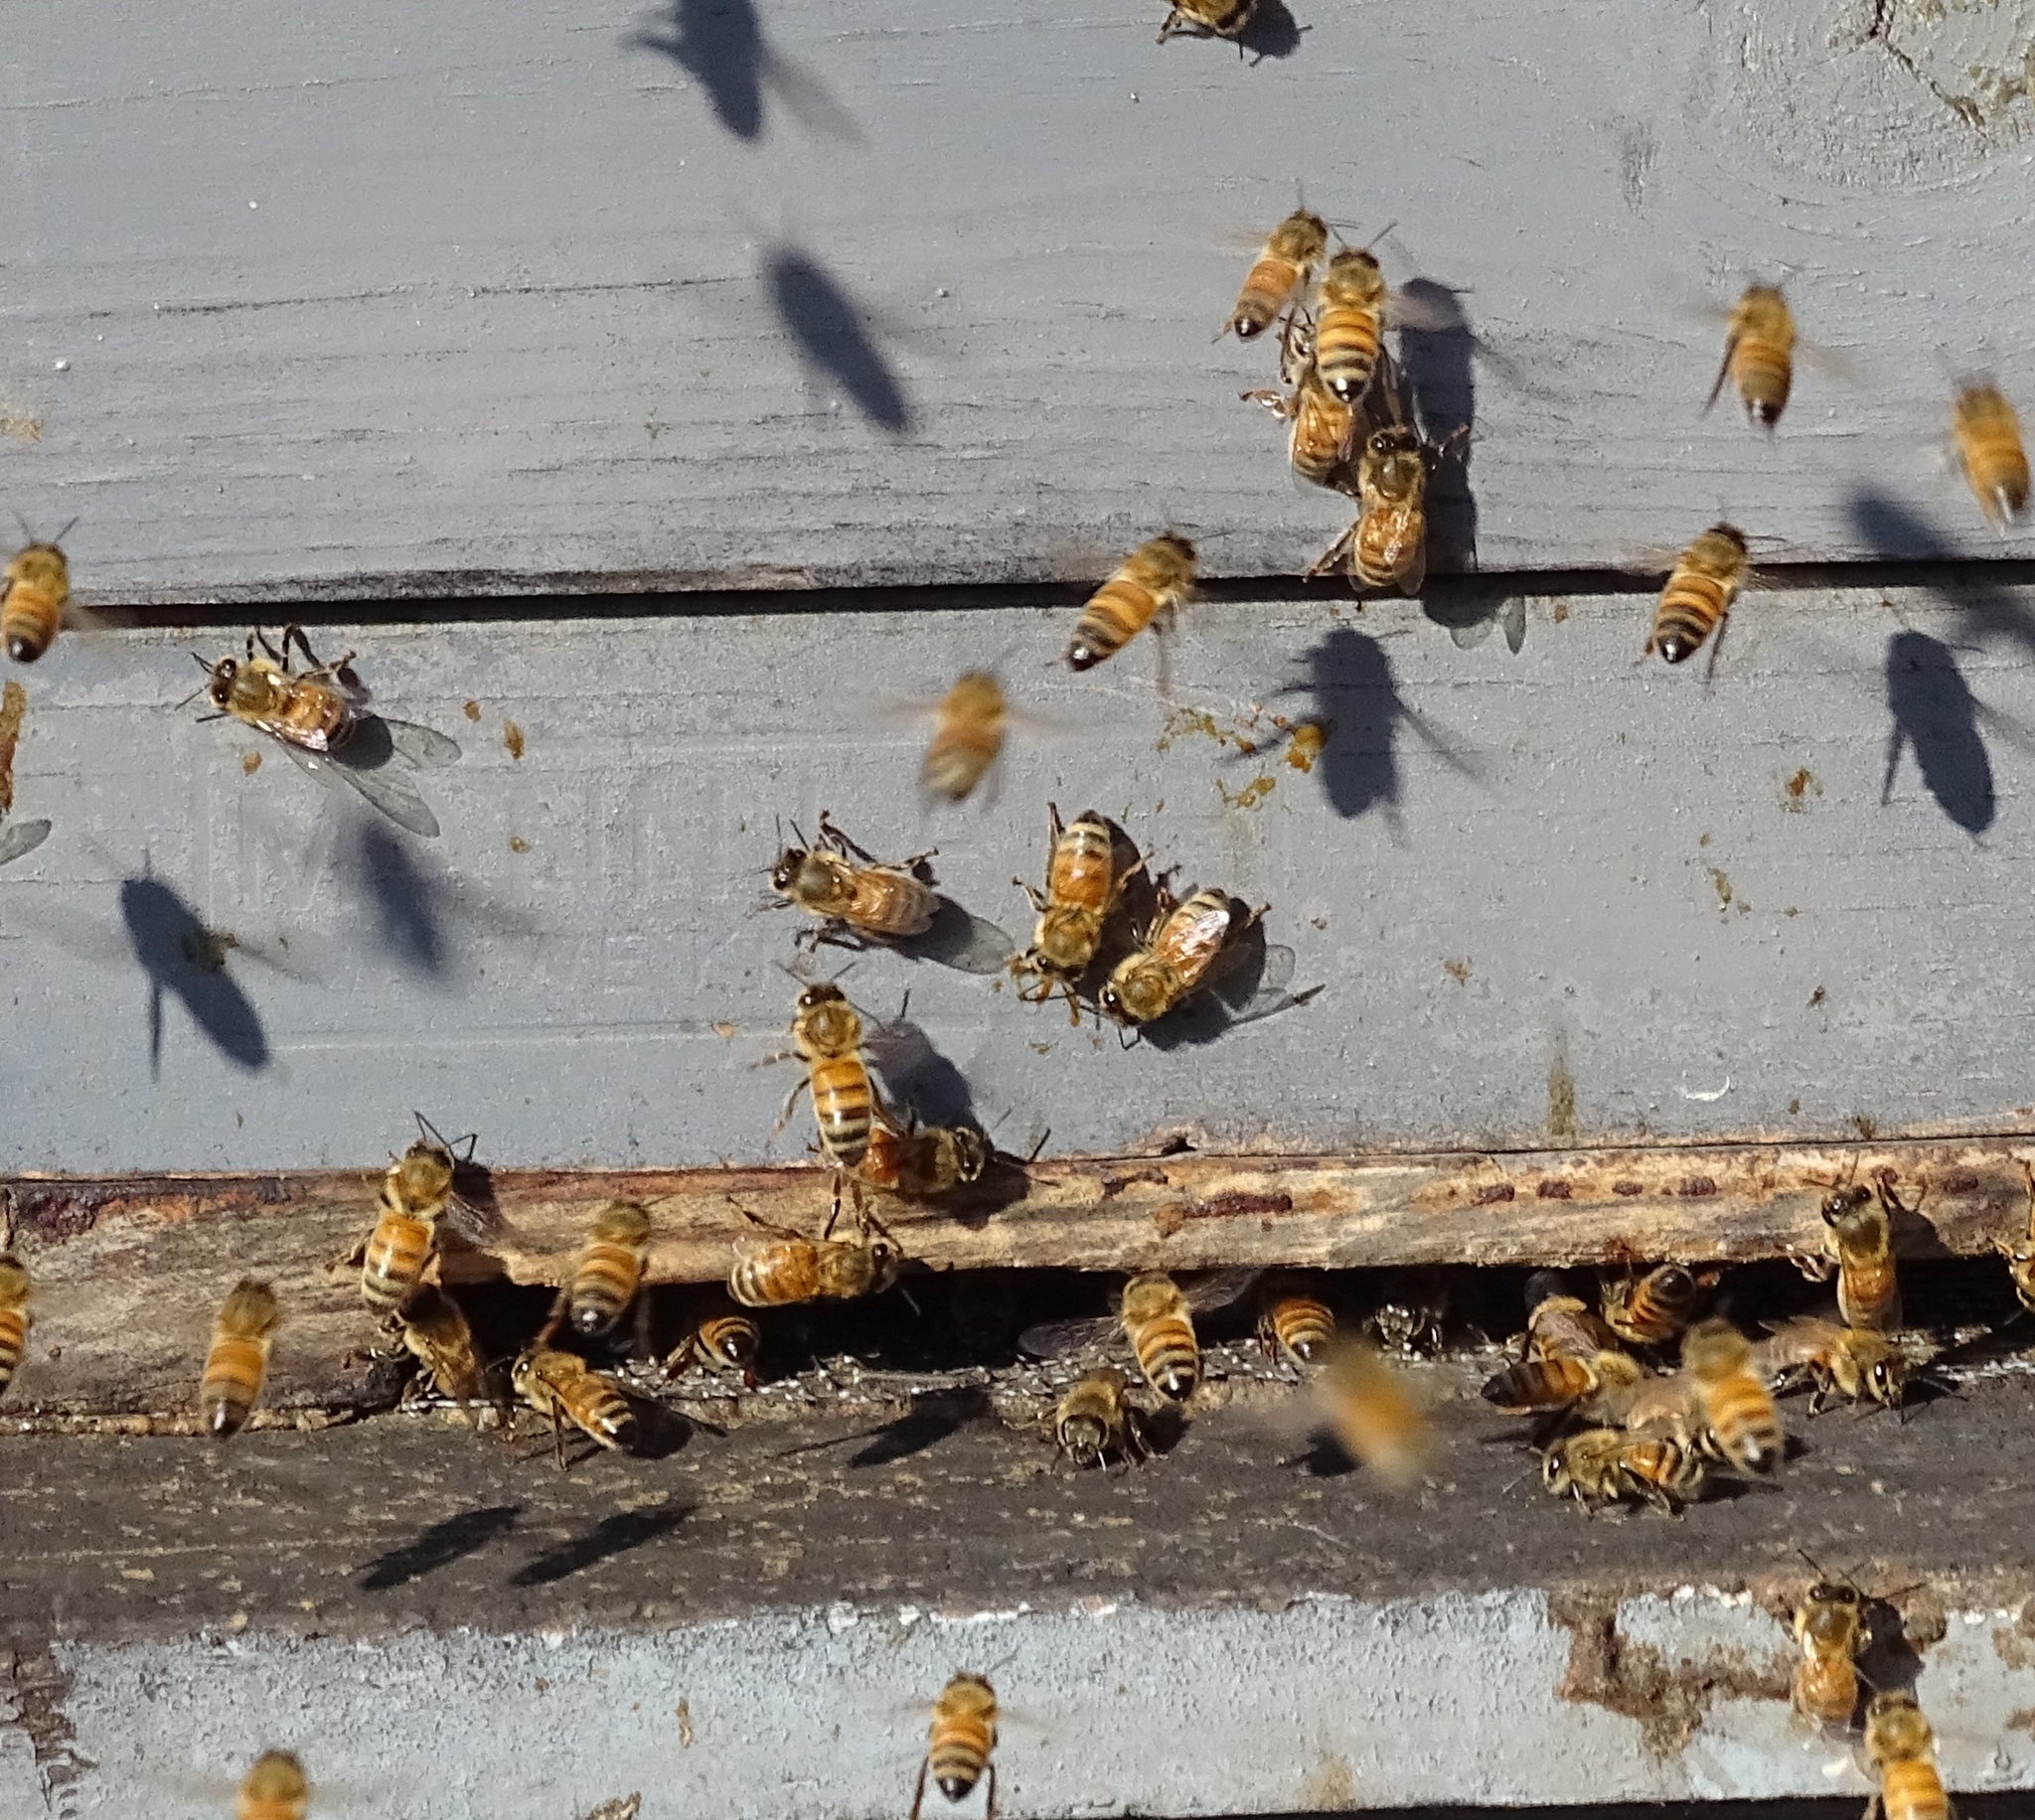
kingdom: Animalia
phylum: Arthropoda
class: Insecta
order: Hymenoptera
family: Apidae
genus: Apis
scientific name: Apis mellifera
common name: Honey bee
